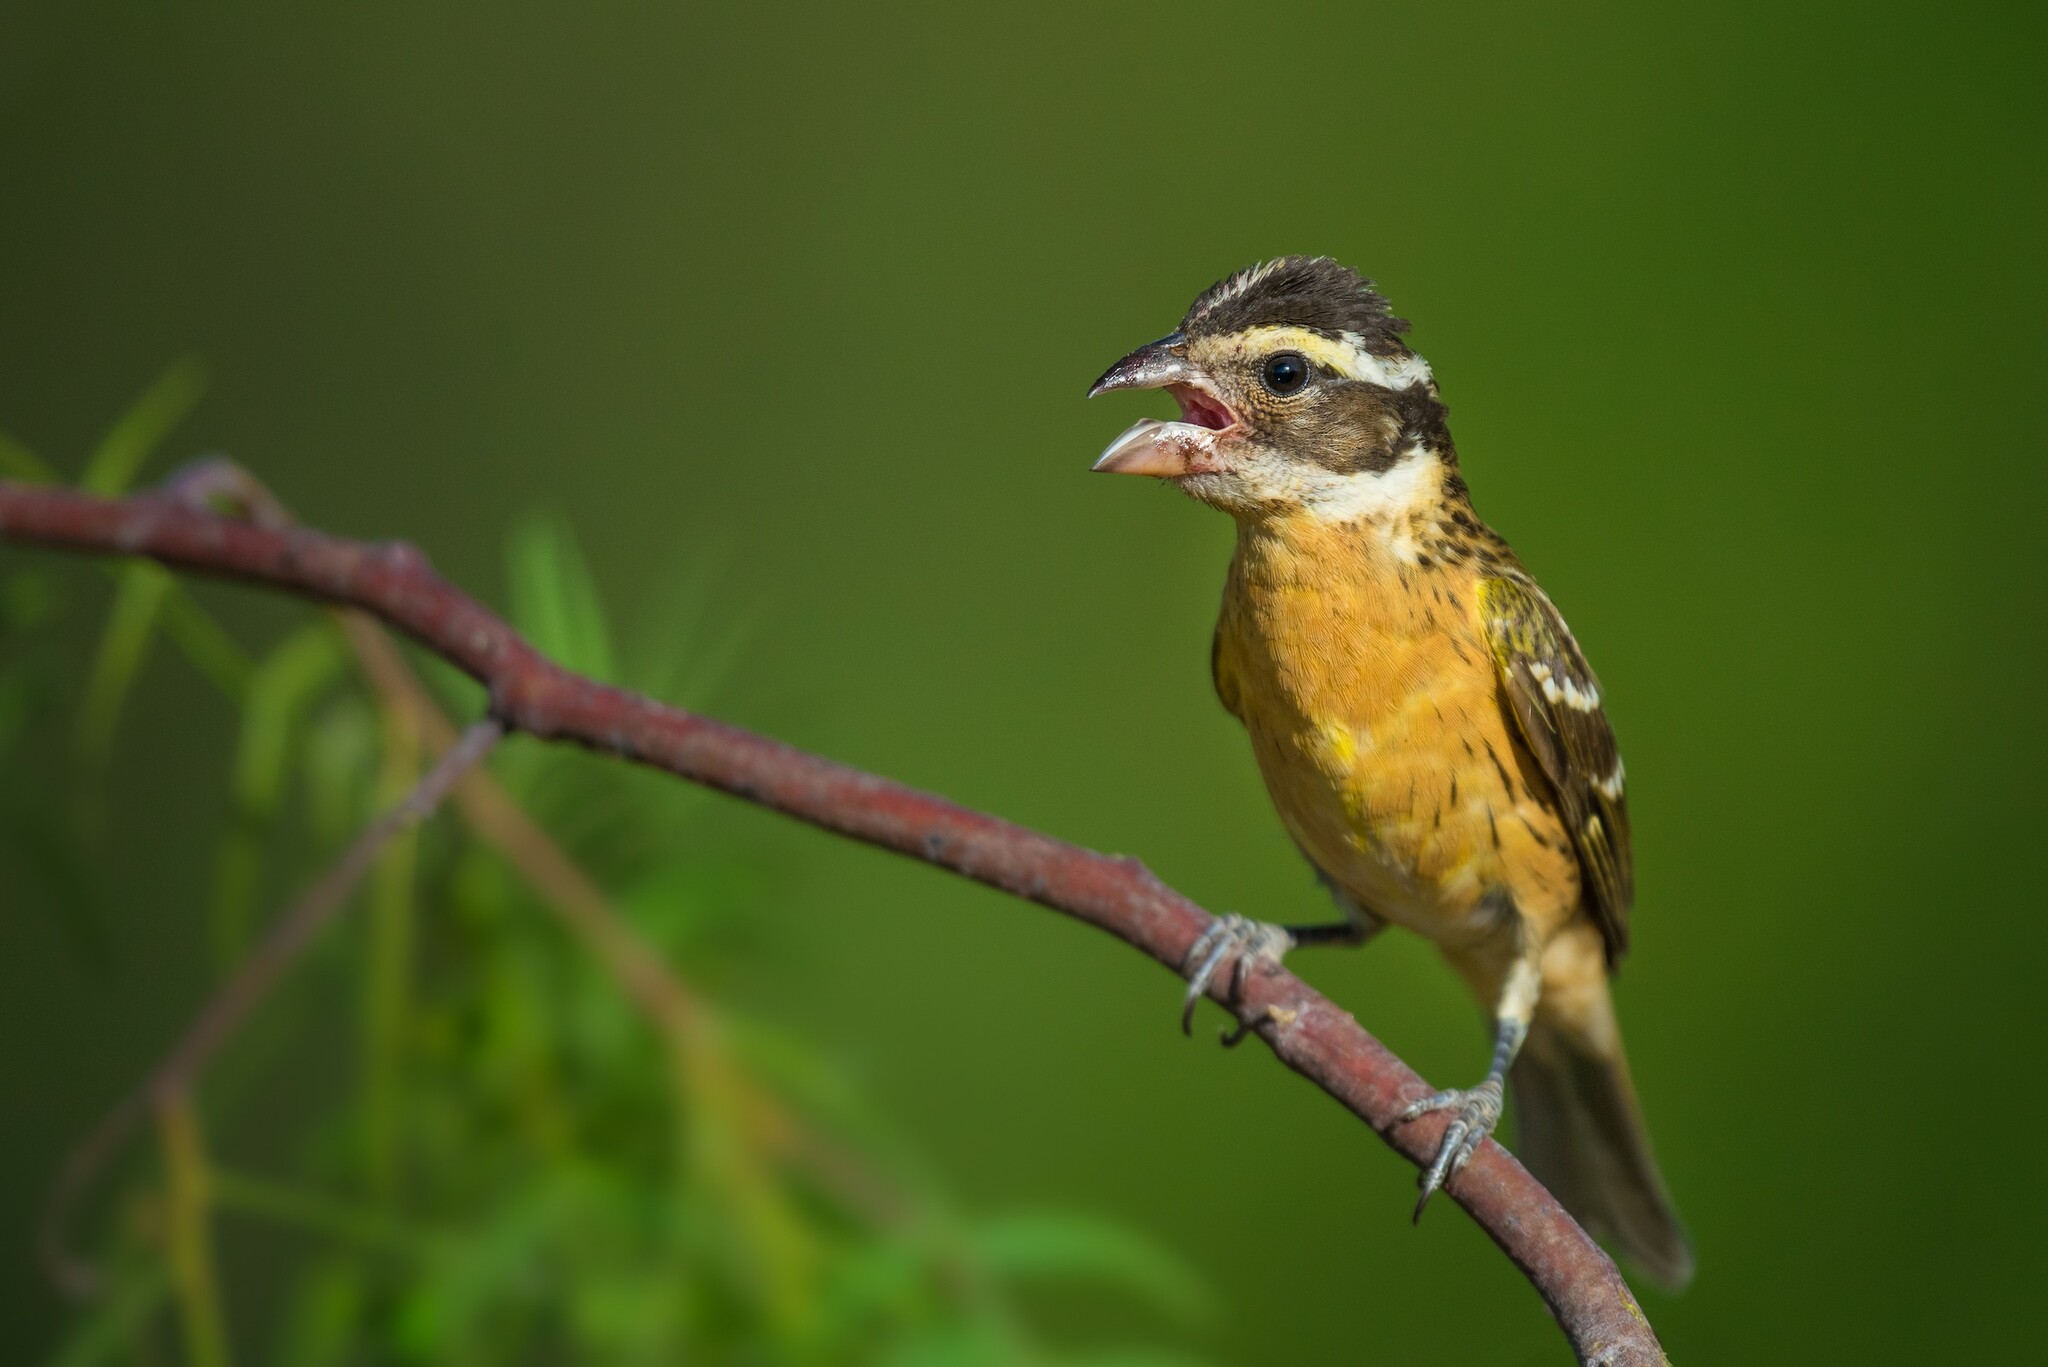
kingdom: Animalia
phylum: Chordata
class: Aves
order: Passeriformes
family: Cardinalidae
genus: Pheucticus
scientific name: Pheucticus melanocephalus
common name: Black-headed grosbeak
